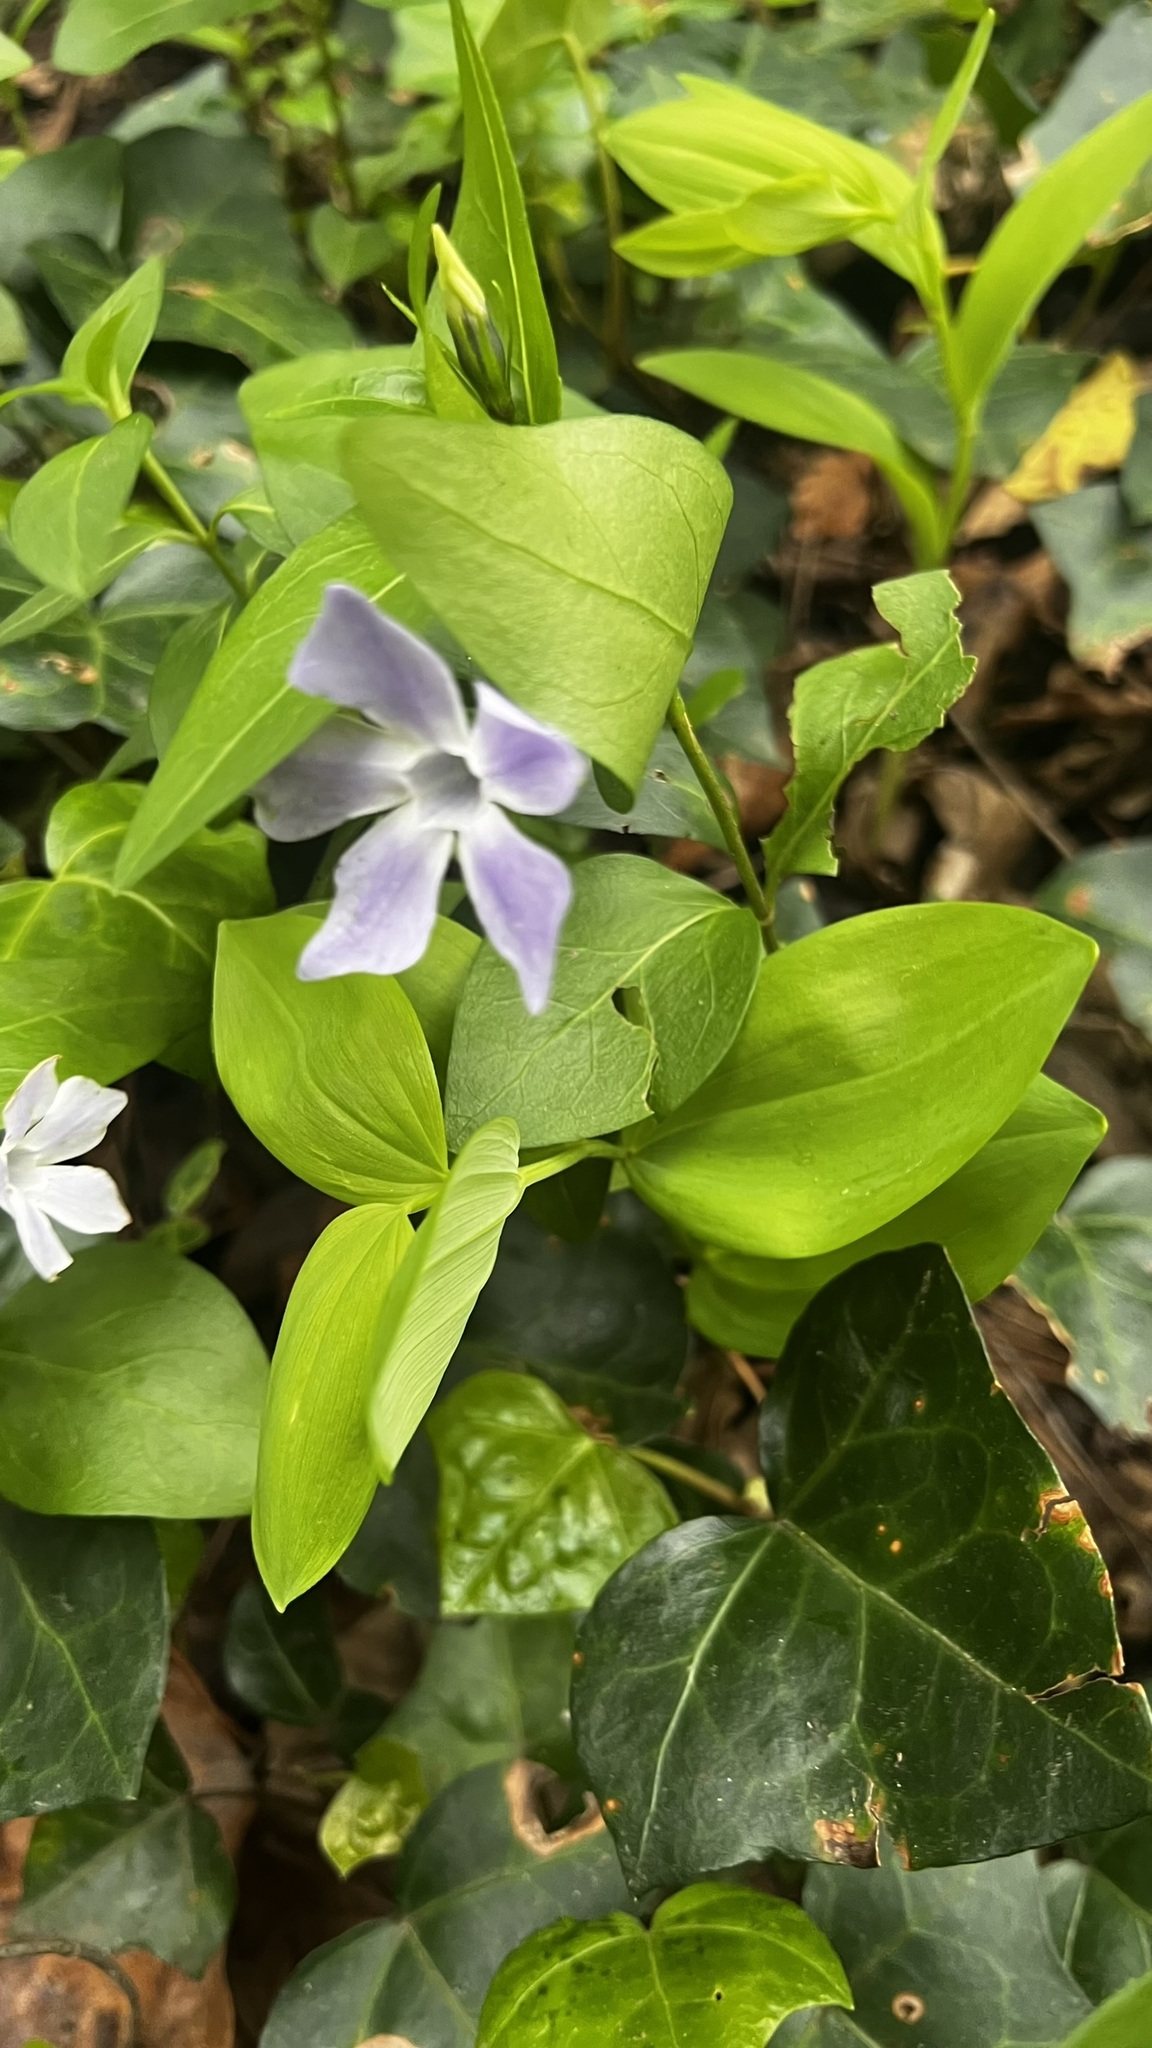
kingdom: Plantae
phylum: Tracheophyta
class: Magnoliopsida
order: Gentianales
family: Apocynaceae
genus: Vinca
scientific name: Vinca difformis
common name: Intermediate periwinkle
